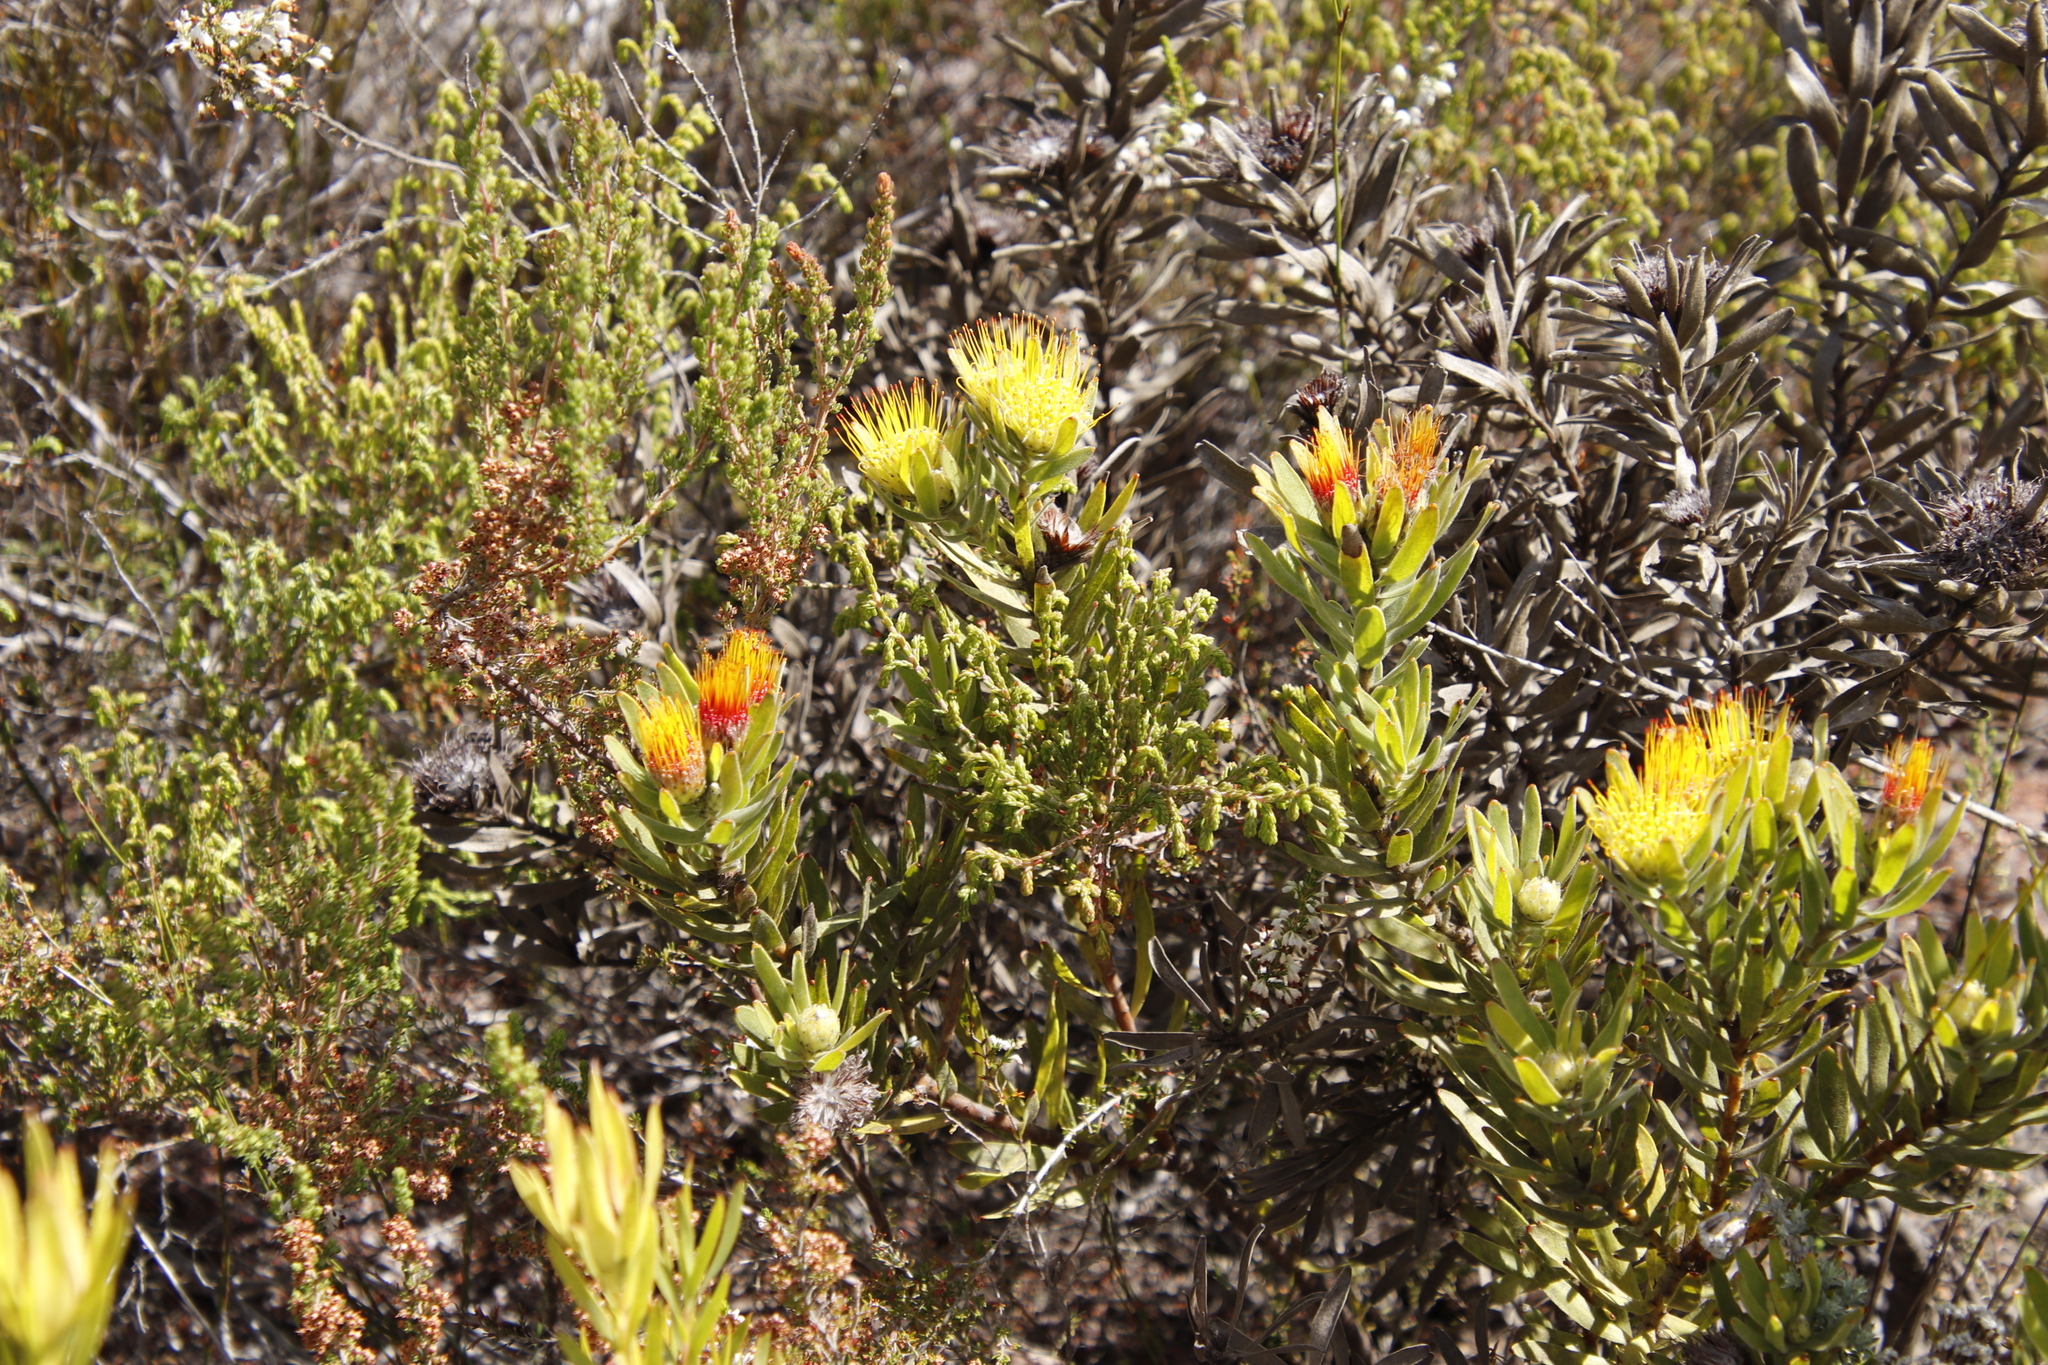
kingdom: Plantae
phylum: Tracheophyta
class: Magnoliopsida
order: Proteales
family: Proteaceae
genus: Leucospermum
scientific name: Leucospermum oleifolium
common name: Matches
